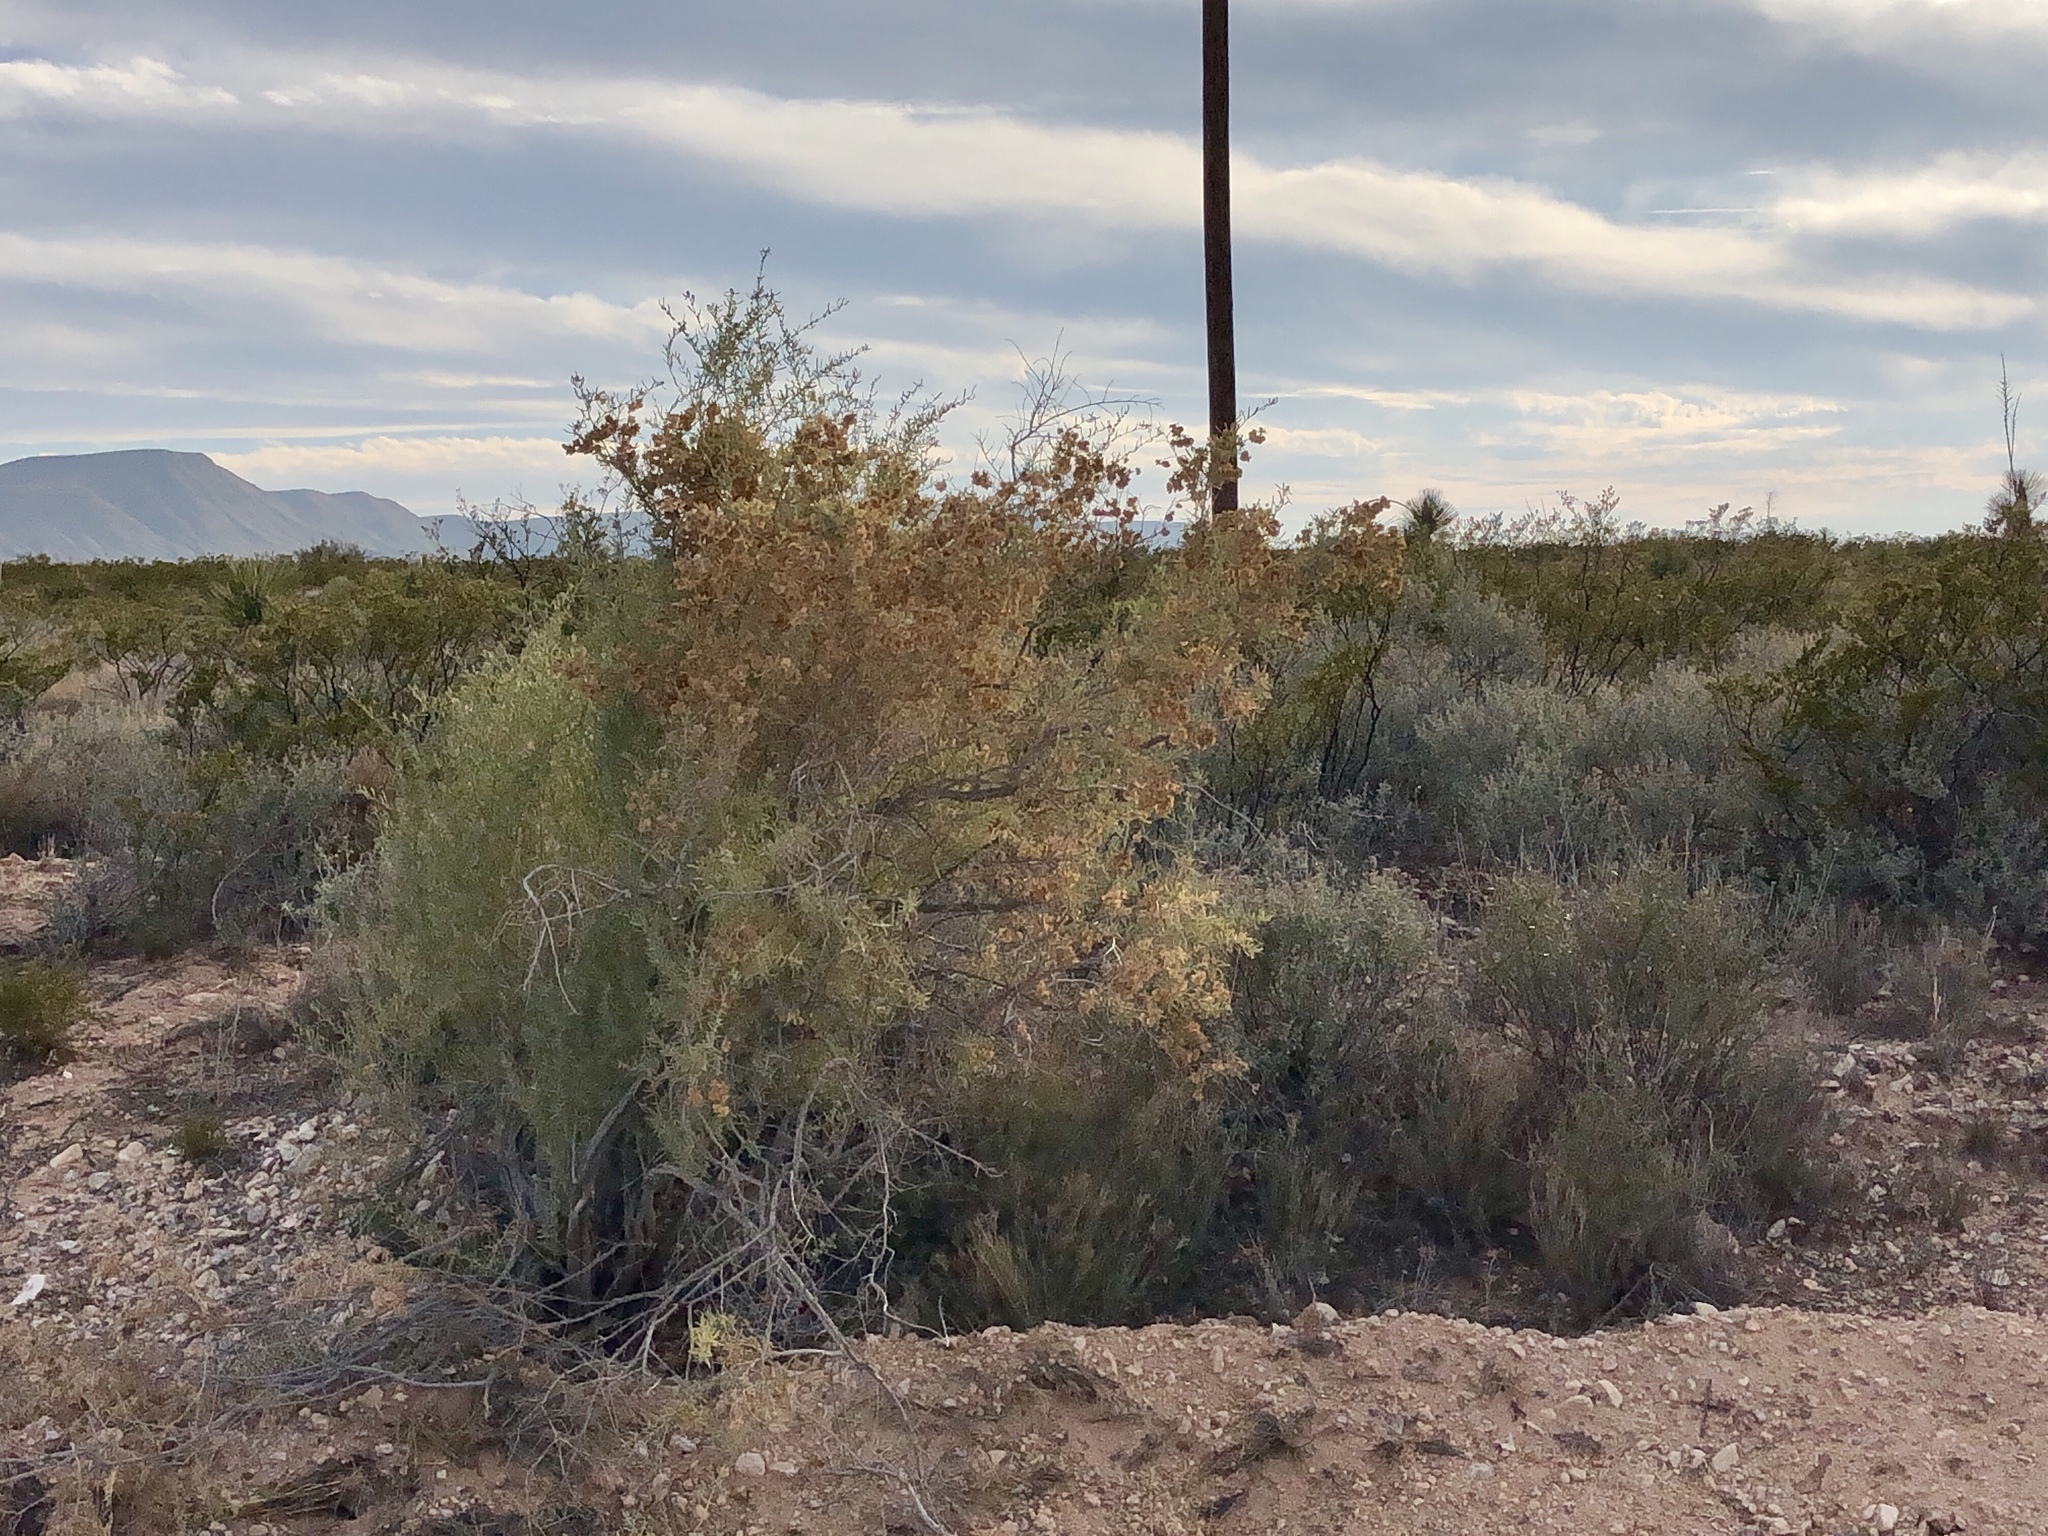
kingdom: Plantae
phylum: Tracheophyta
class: Magnoliopsida
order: Caryophyllales
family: Amaranthaceae
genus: Atriplex
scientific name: Atriplex canescens
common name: Four-wing saltbush
